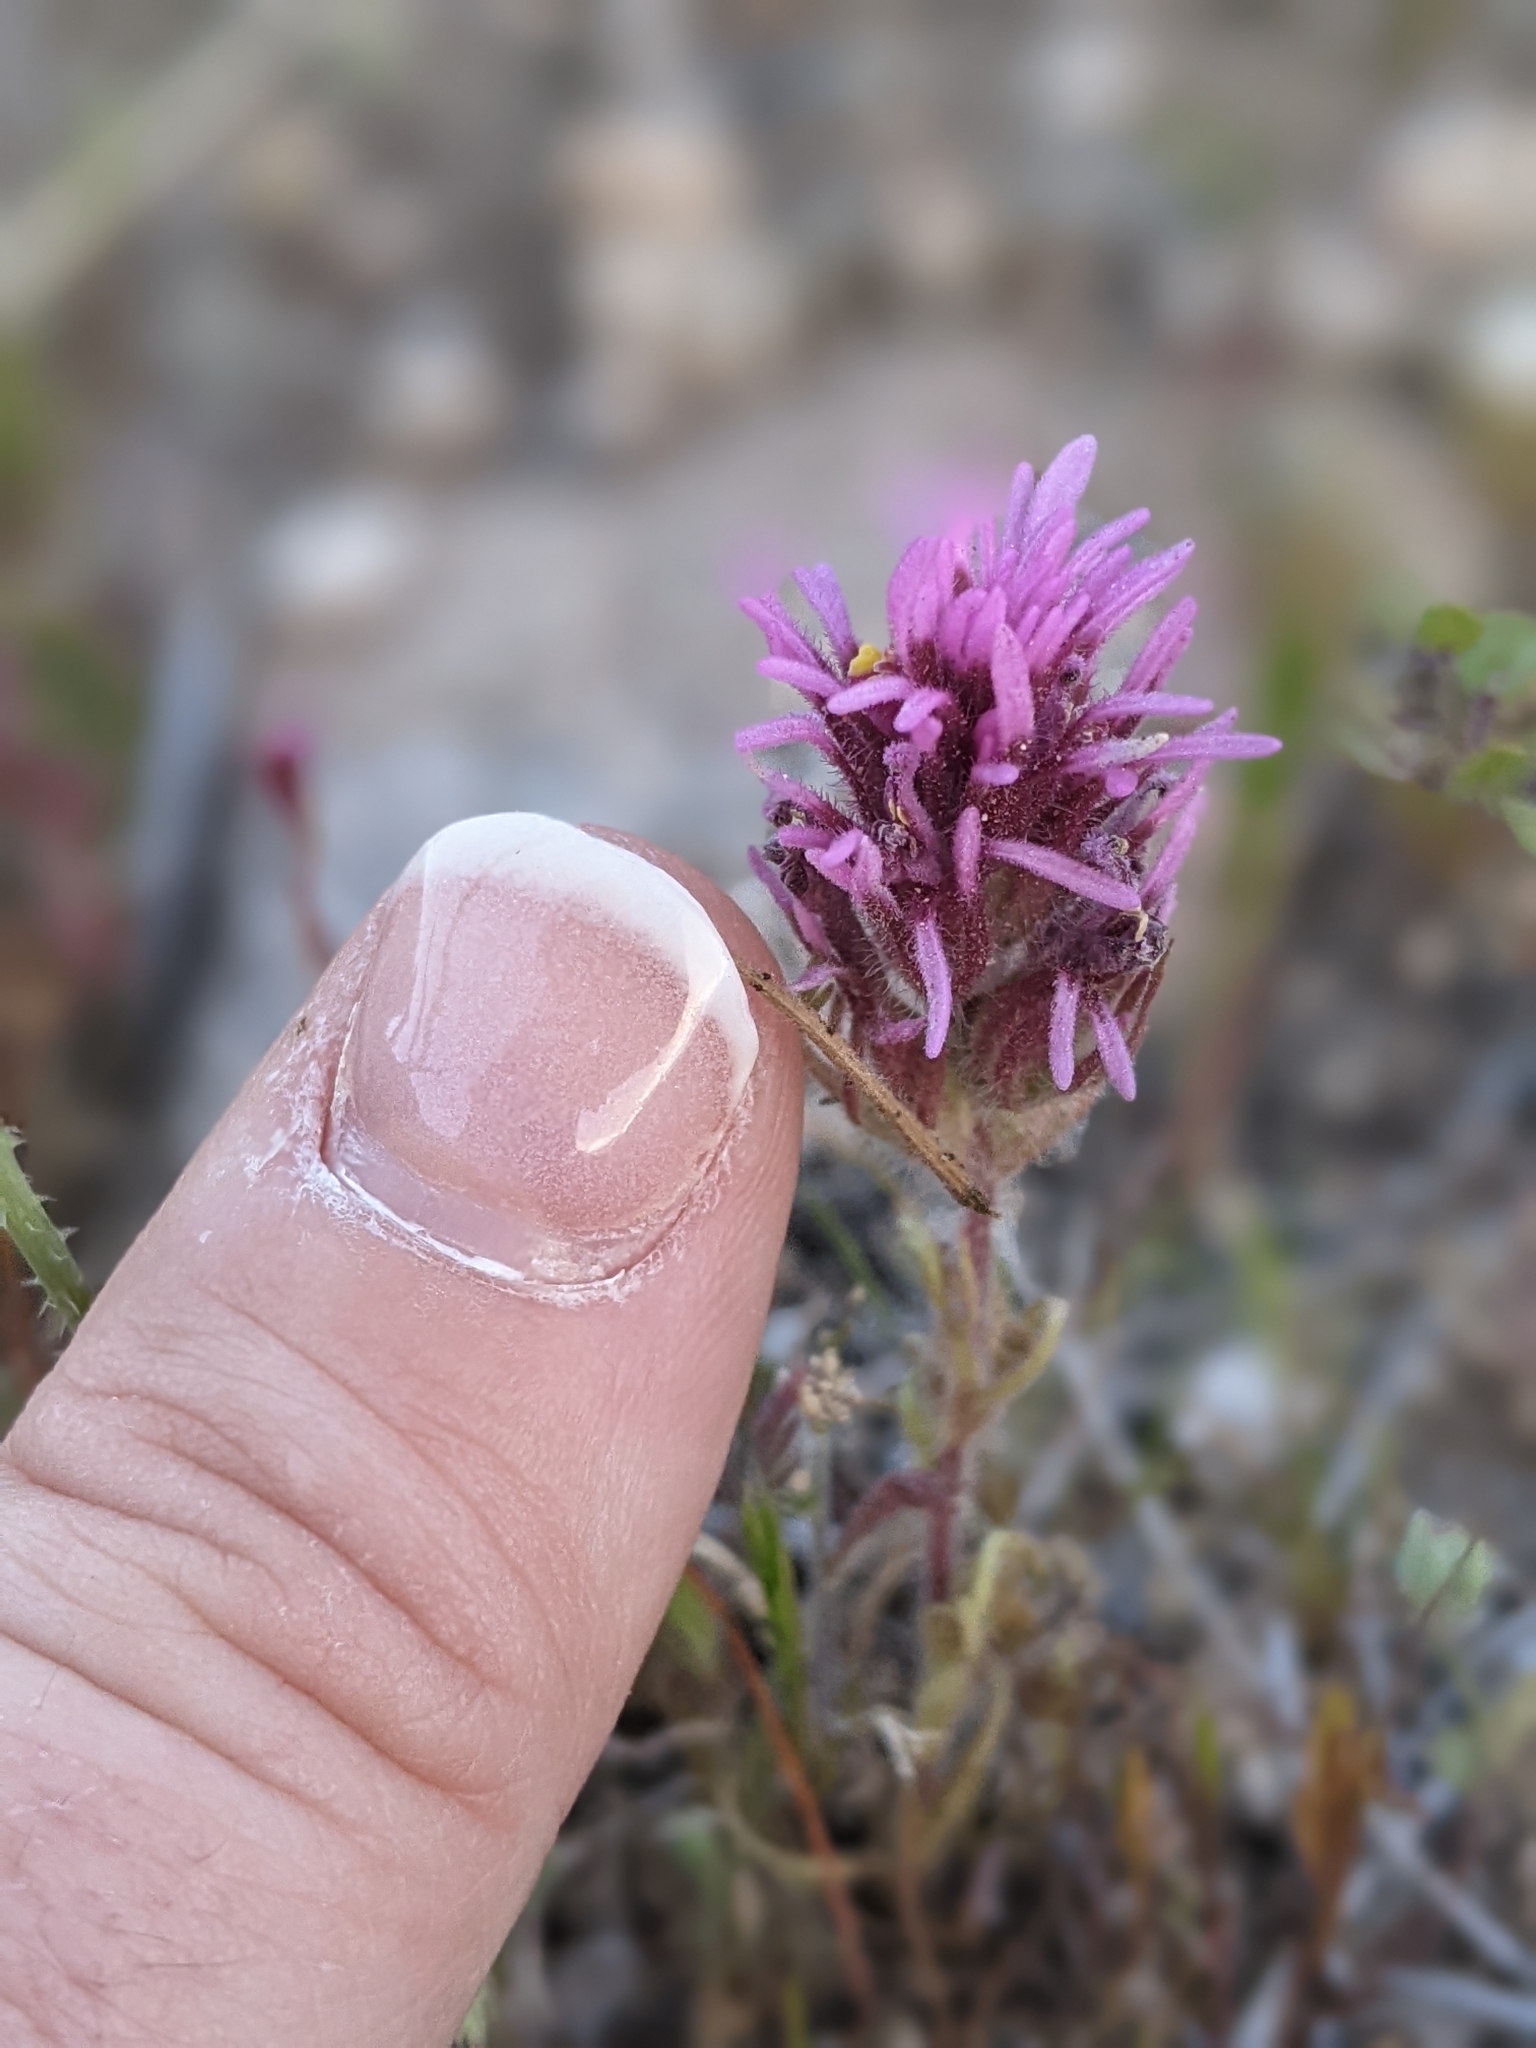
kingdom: Plantae
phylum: Tracheophyta
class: Magnoliopsida
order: Lamiales
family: Orobanchaceae
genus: Castilleja
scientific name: Castilleja exserta
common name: Purple owl-clover
